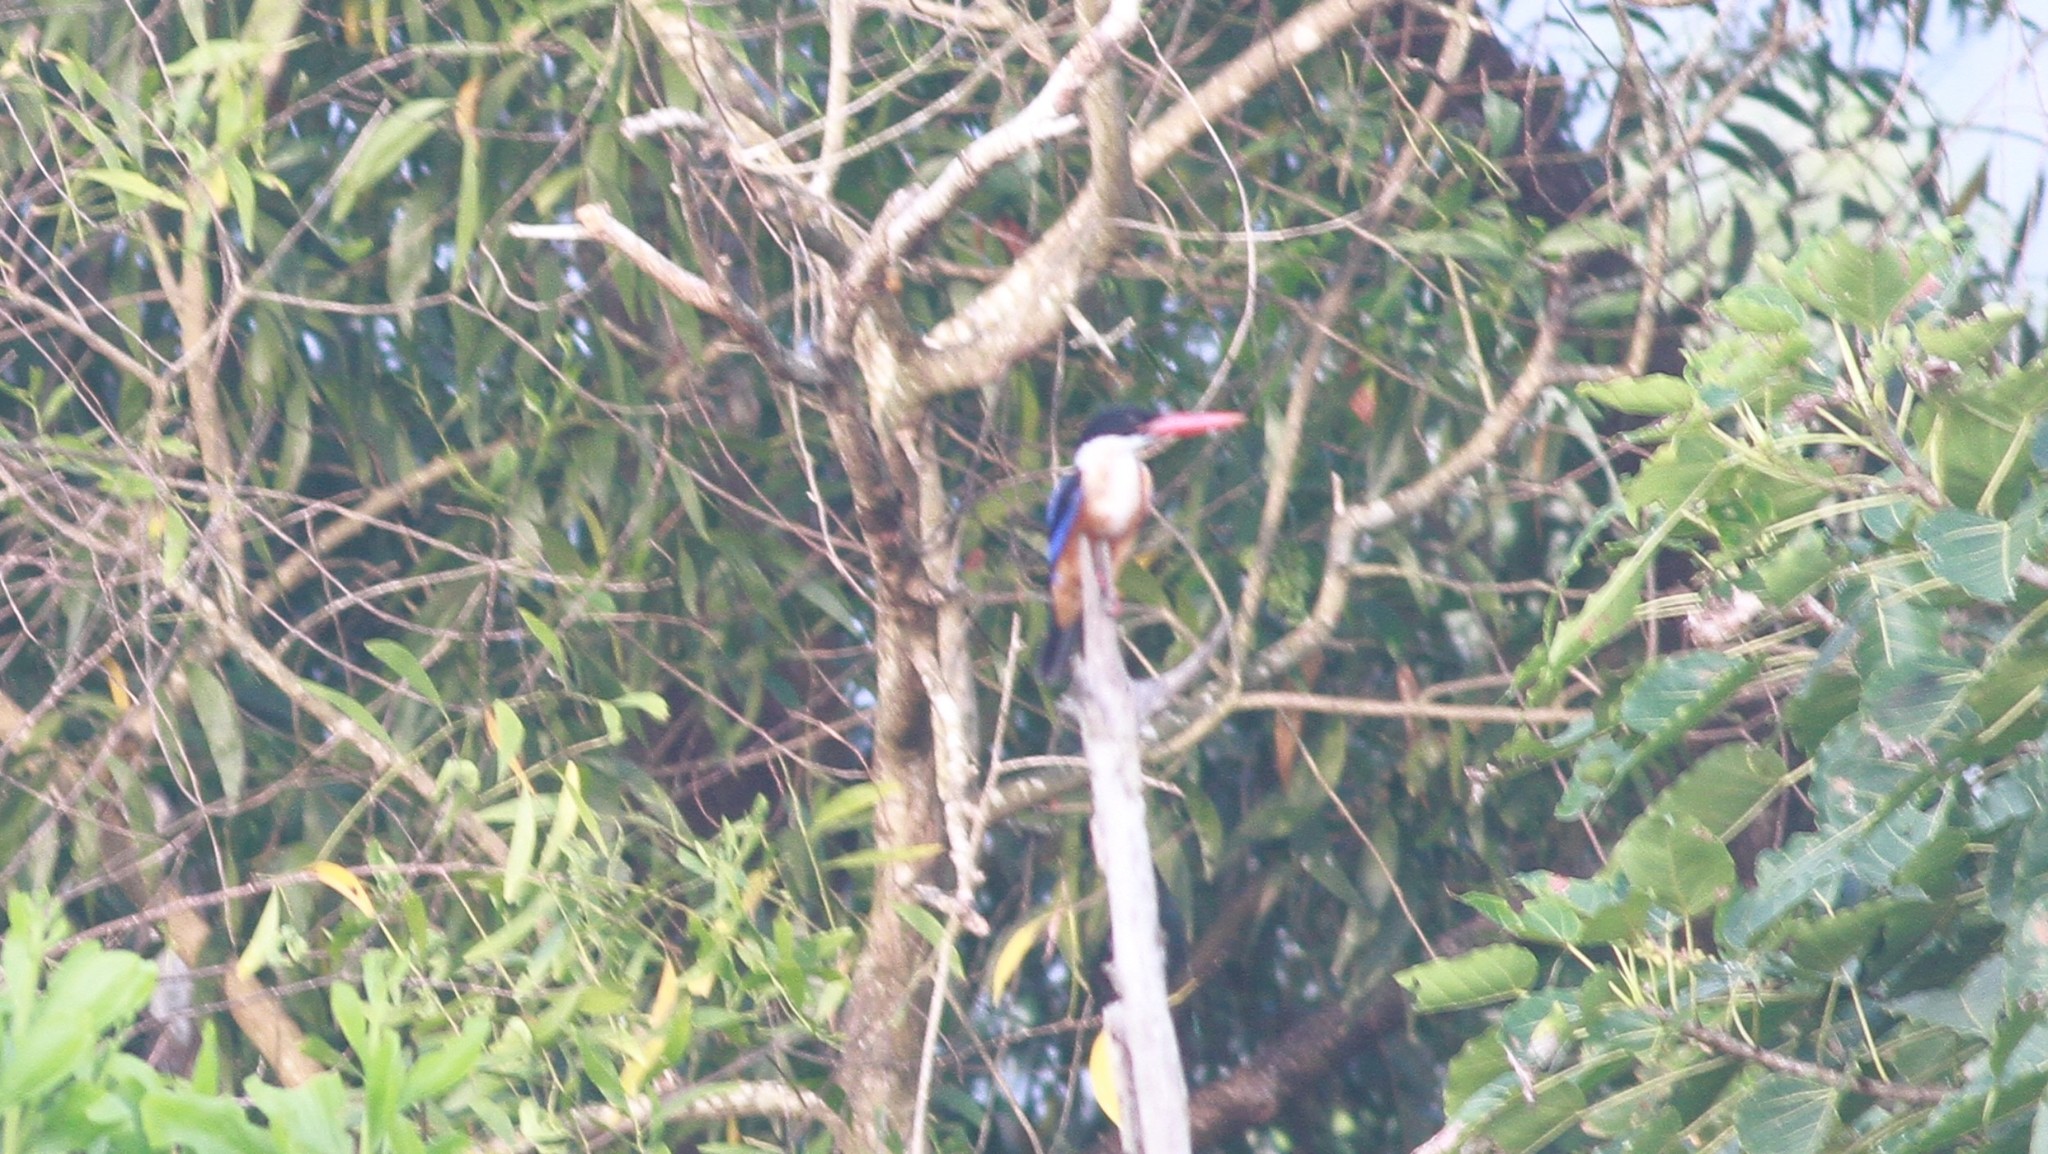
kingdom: Animalia
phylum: Chordata
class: Aves
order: Coraciiformes
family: Alcedinidae
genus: Halcyon
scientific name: Halcyon pileata
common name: Black-capped kingfisher
